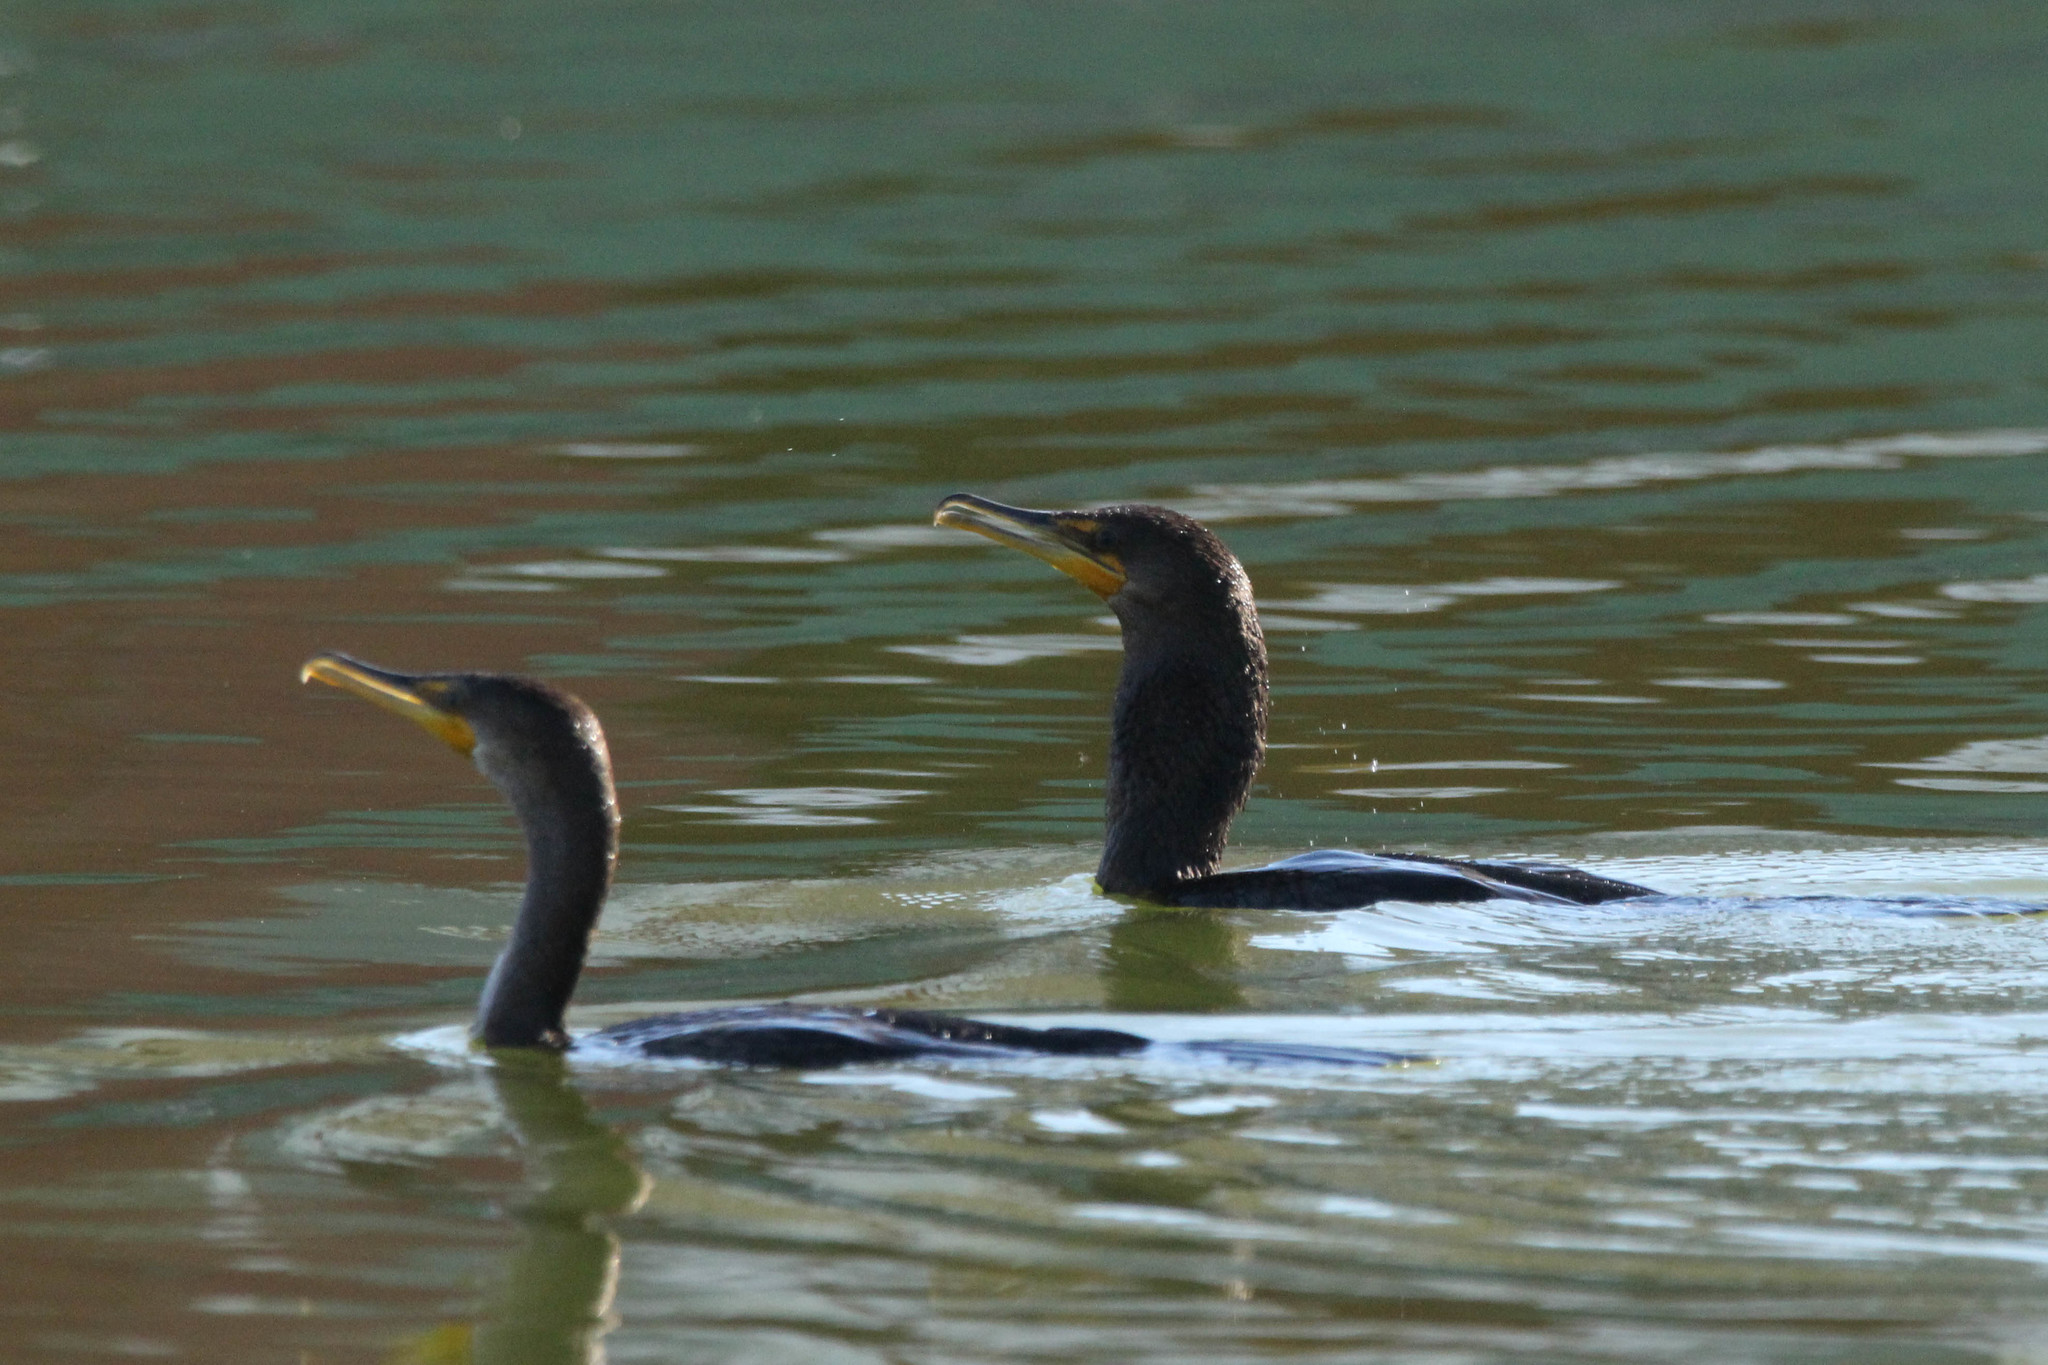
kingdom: Animalia
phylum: Chordata
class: Aves
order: Suliformes
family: Phalacrocoracidae
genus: Phalacrocorax
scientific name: Phalacrocorax auritus
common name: Double-crested cormorant
